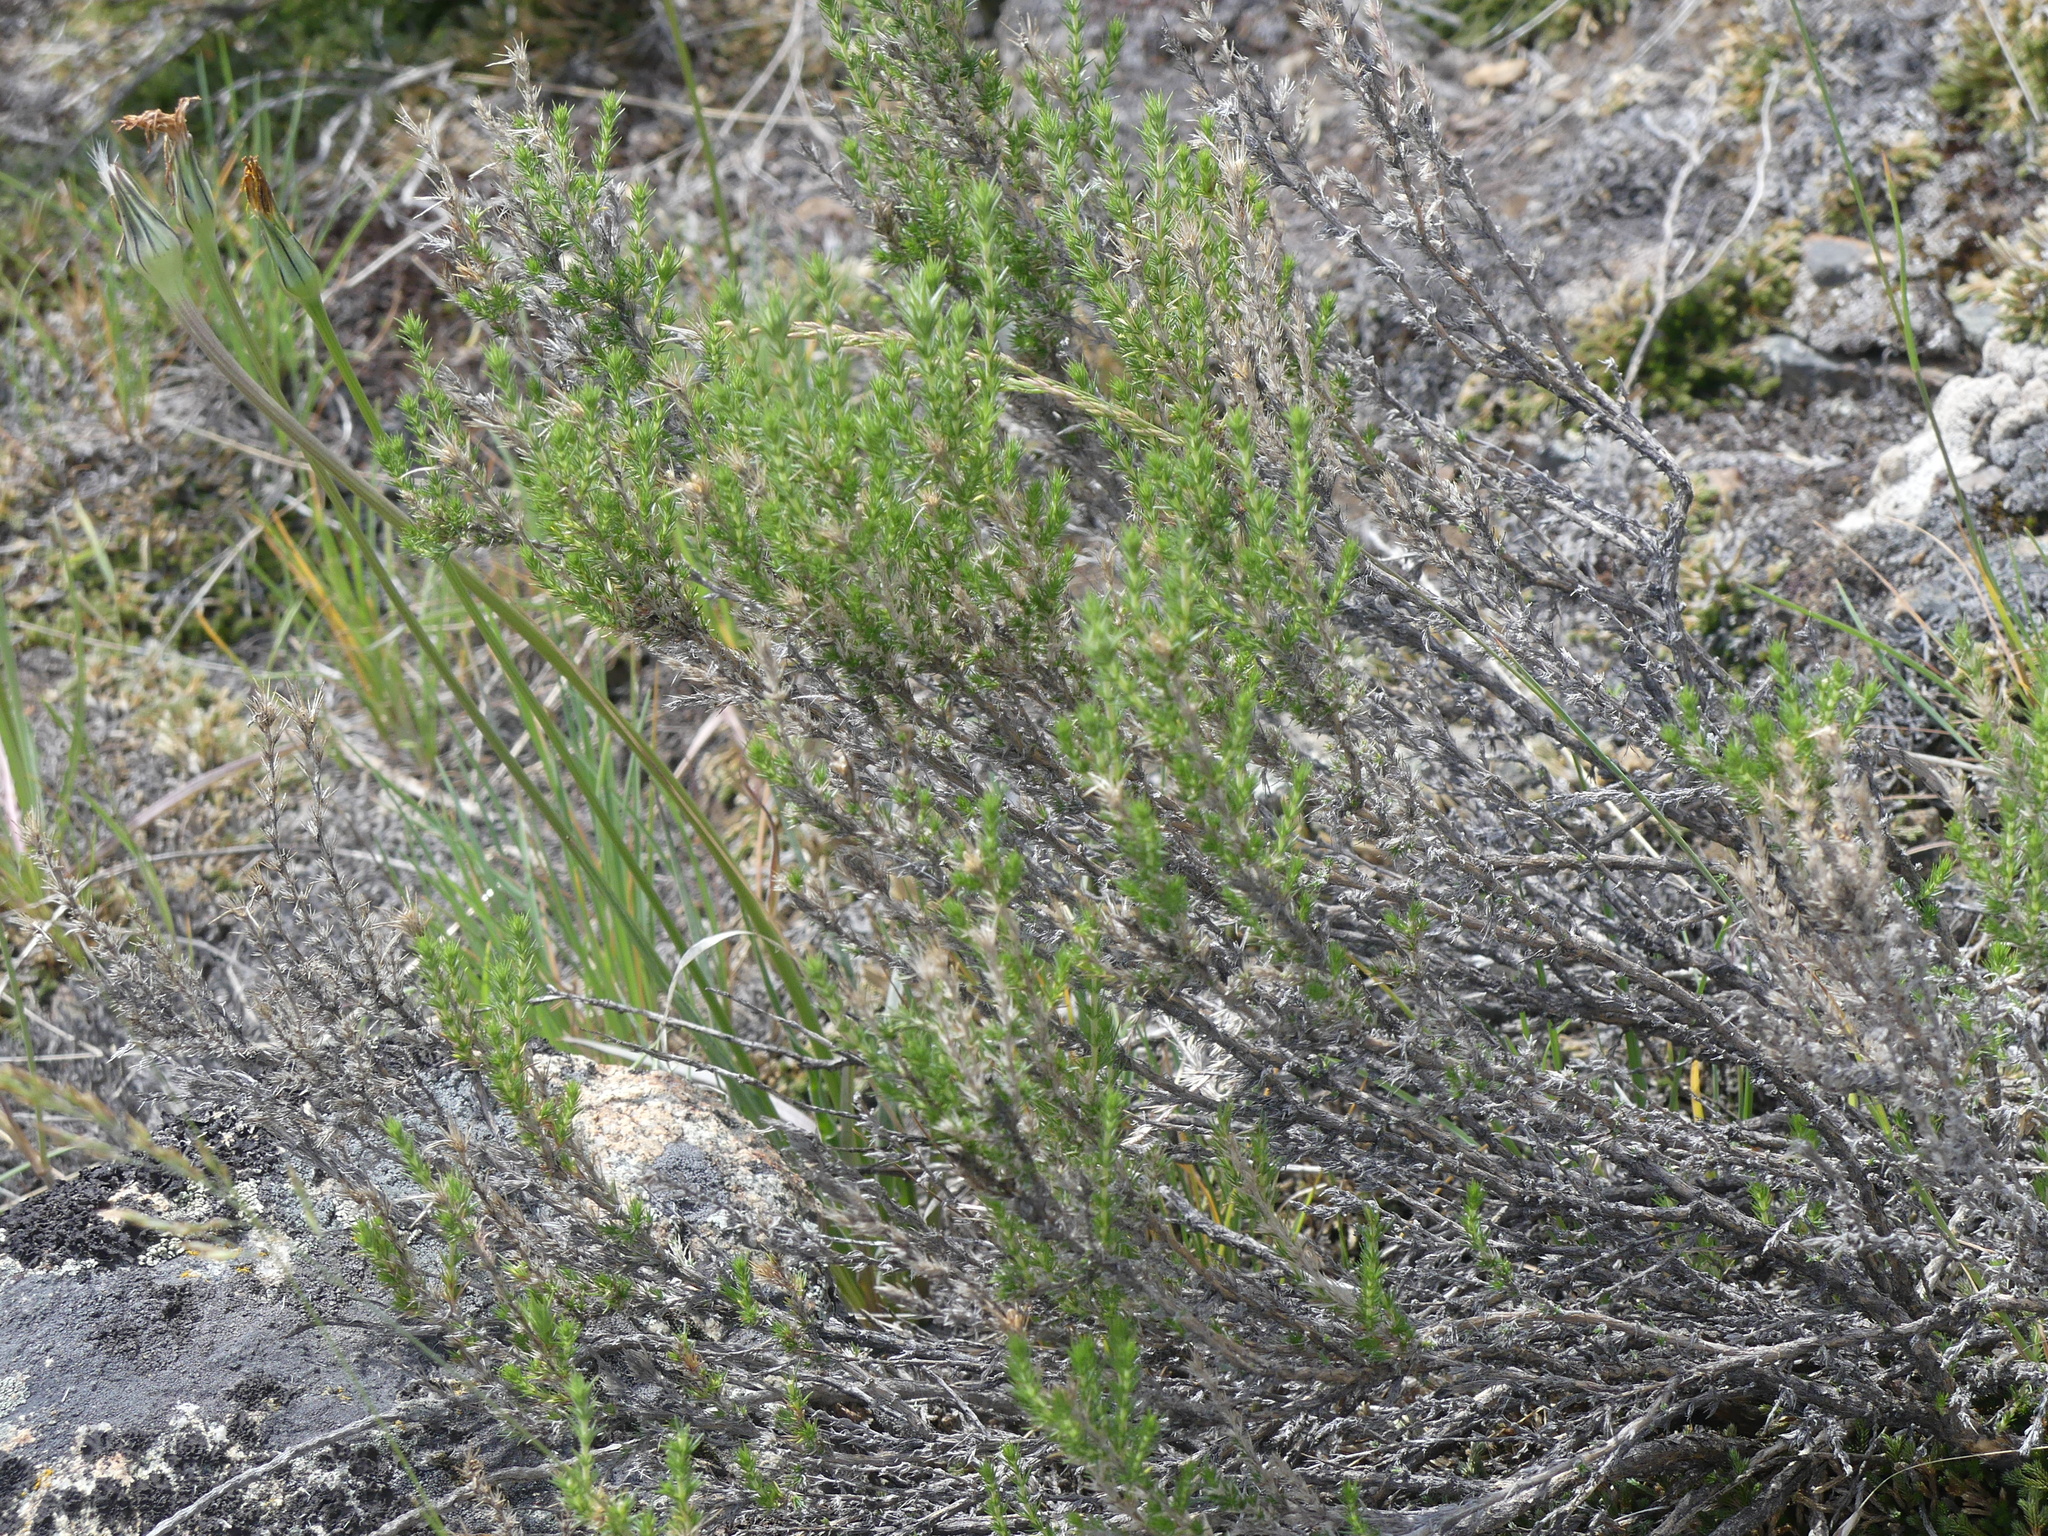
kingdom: Plantae
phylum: Tracheophyta
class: Magnoliopsida
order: Ericales
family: Polemoniaceae
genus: Linanthus
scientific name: Linanthus pungens
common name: Granite prickly phlox
